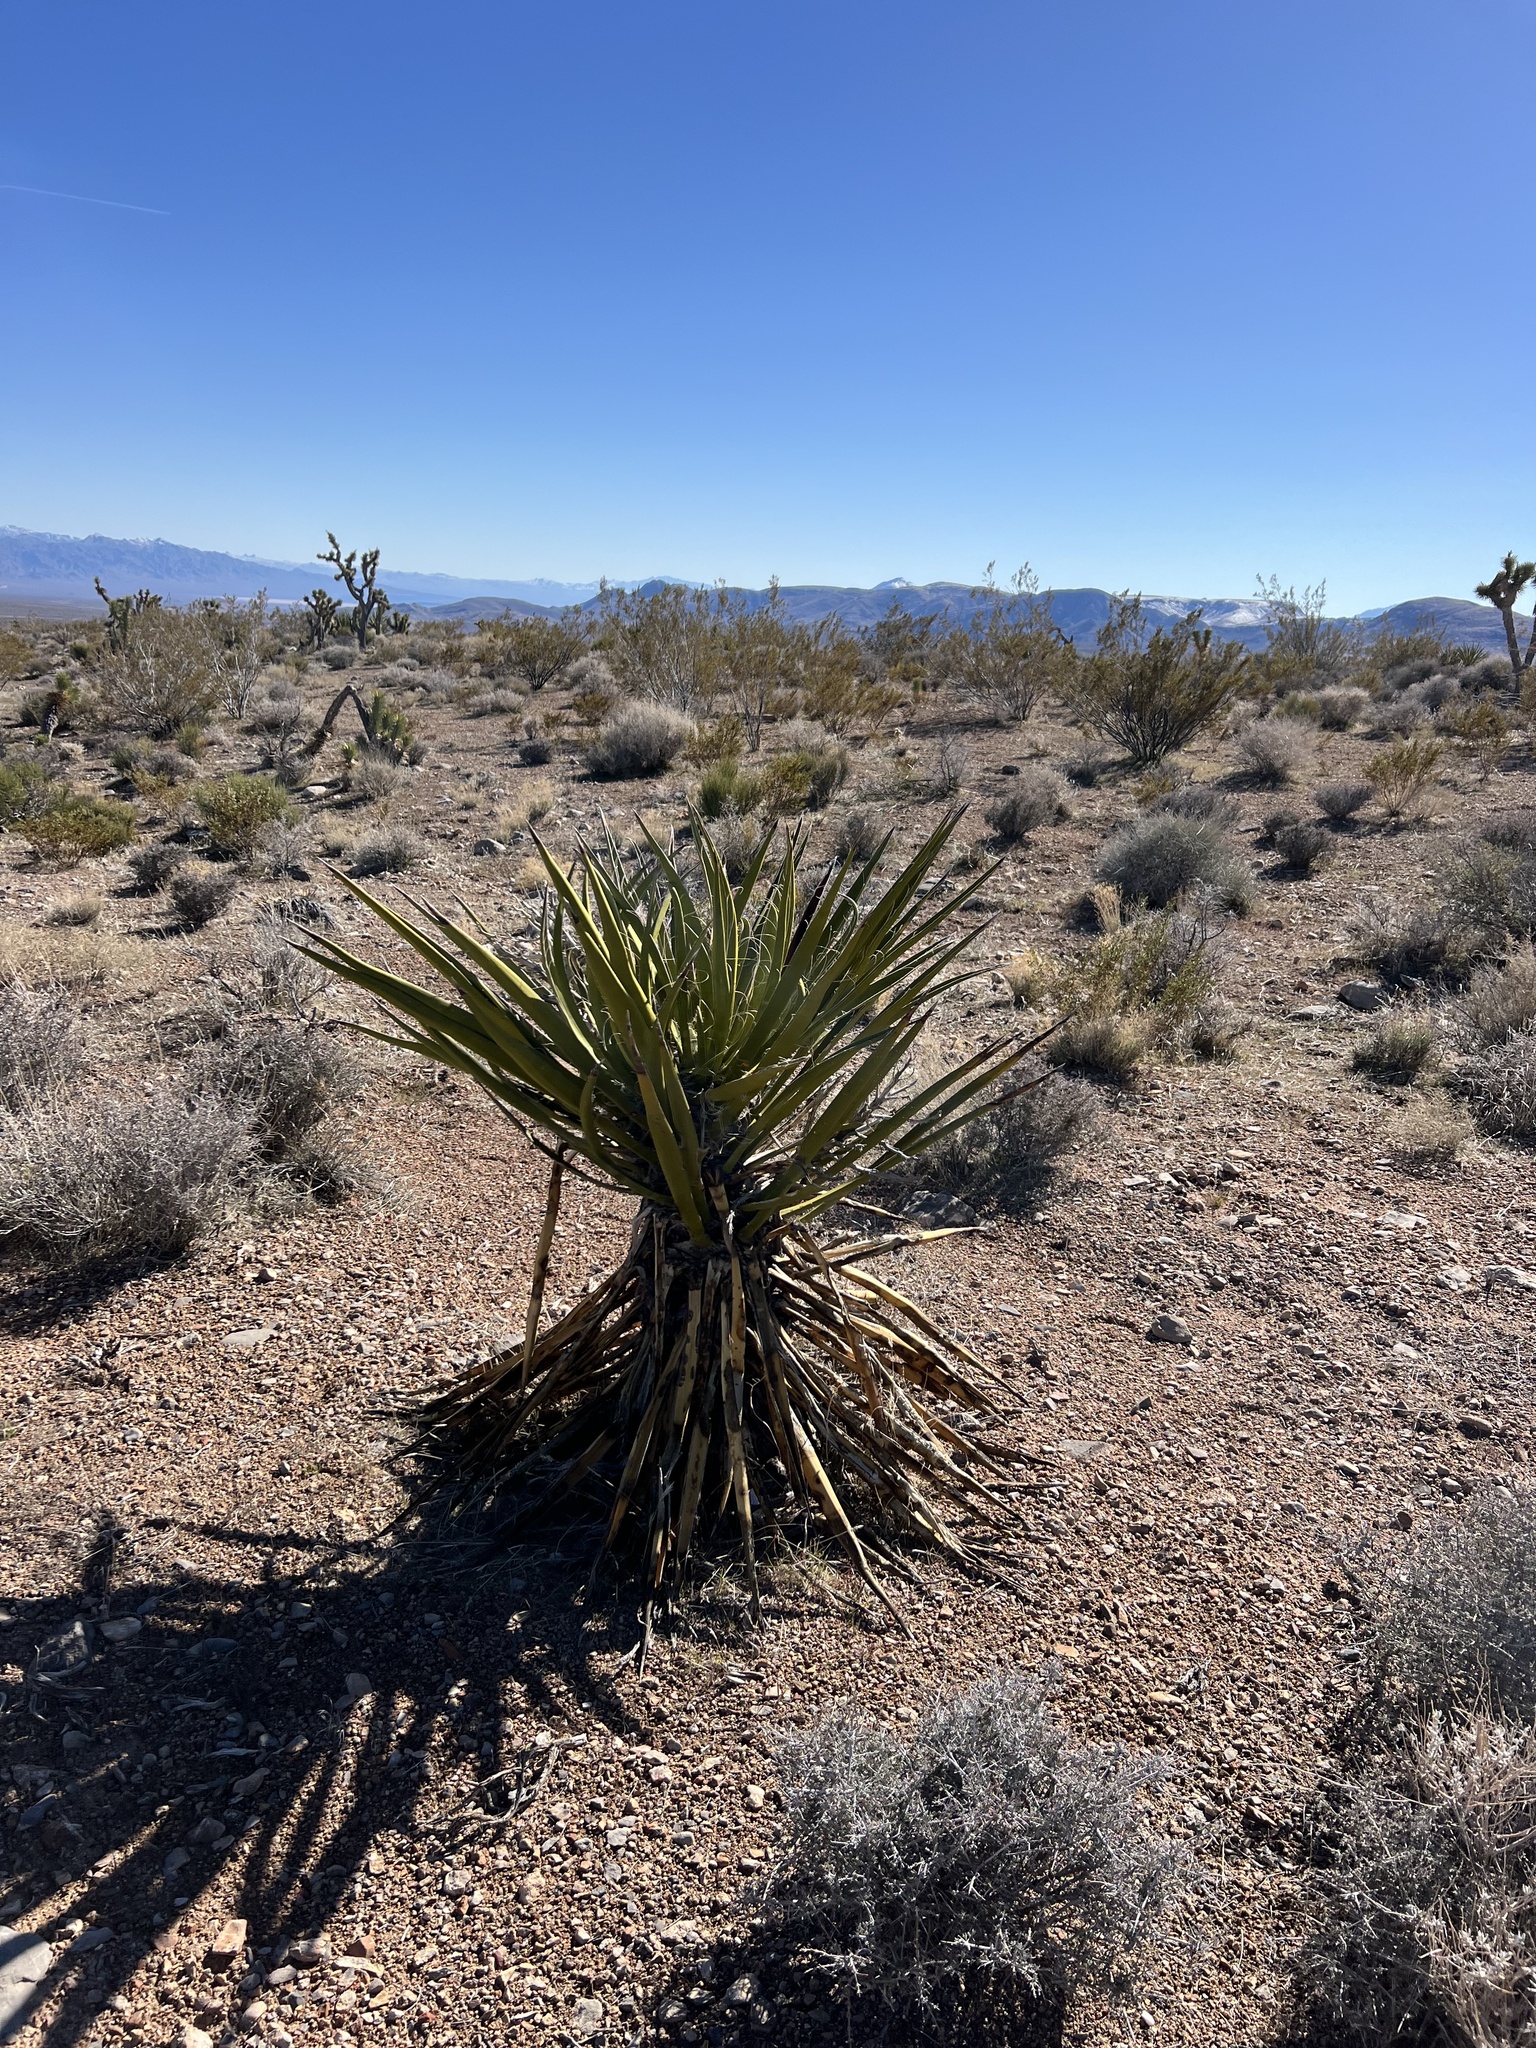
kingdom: Plantae
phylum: Tracheophyta
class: Liliopsida
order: Asparagales
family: Asparagaceae
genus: Yucca
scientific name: Yucca schidigera
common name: Mojave yucca
